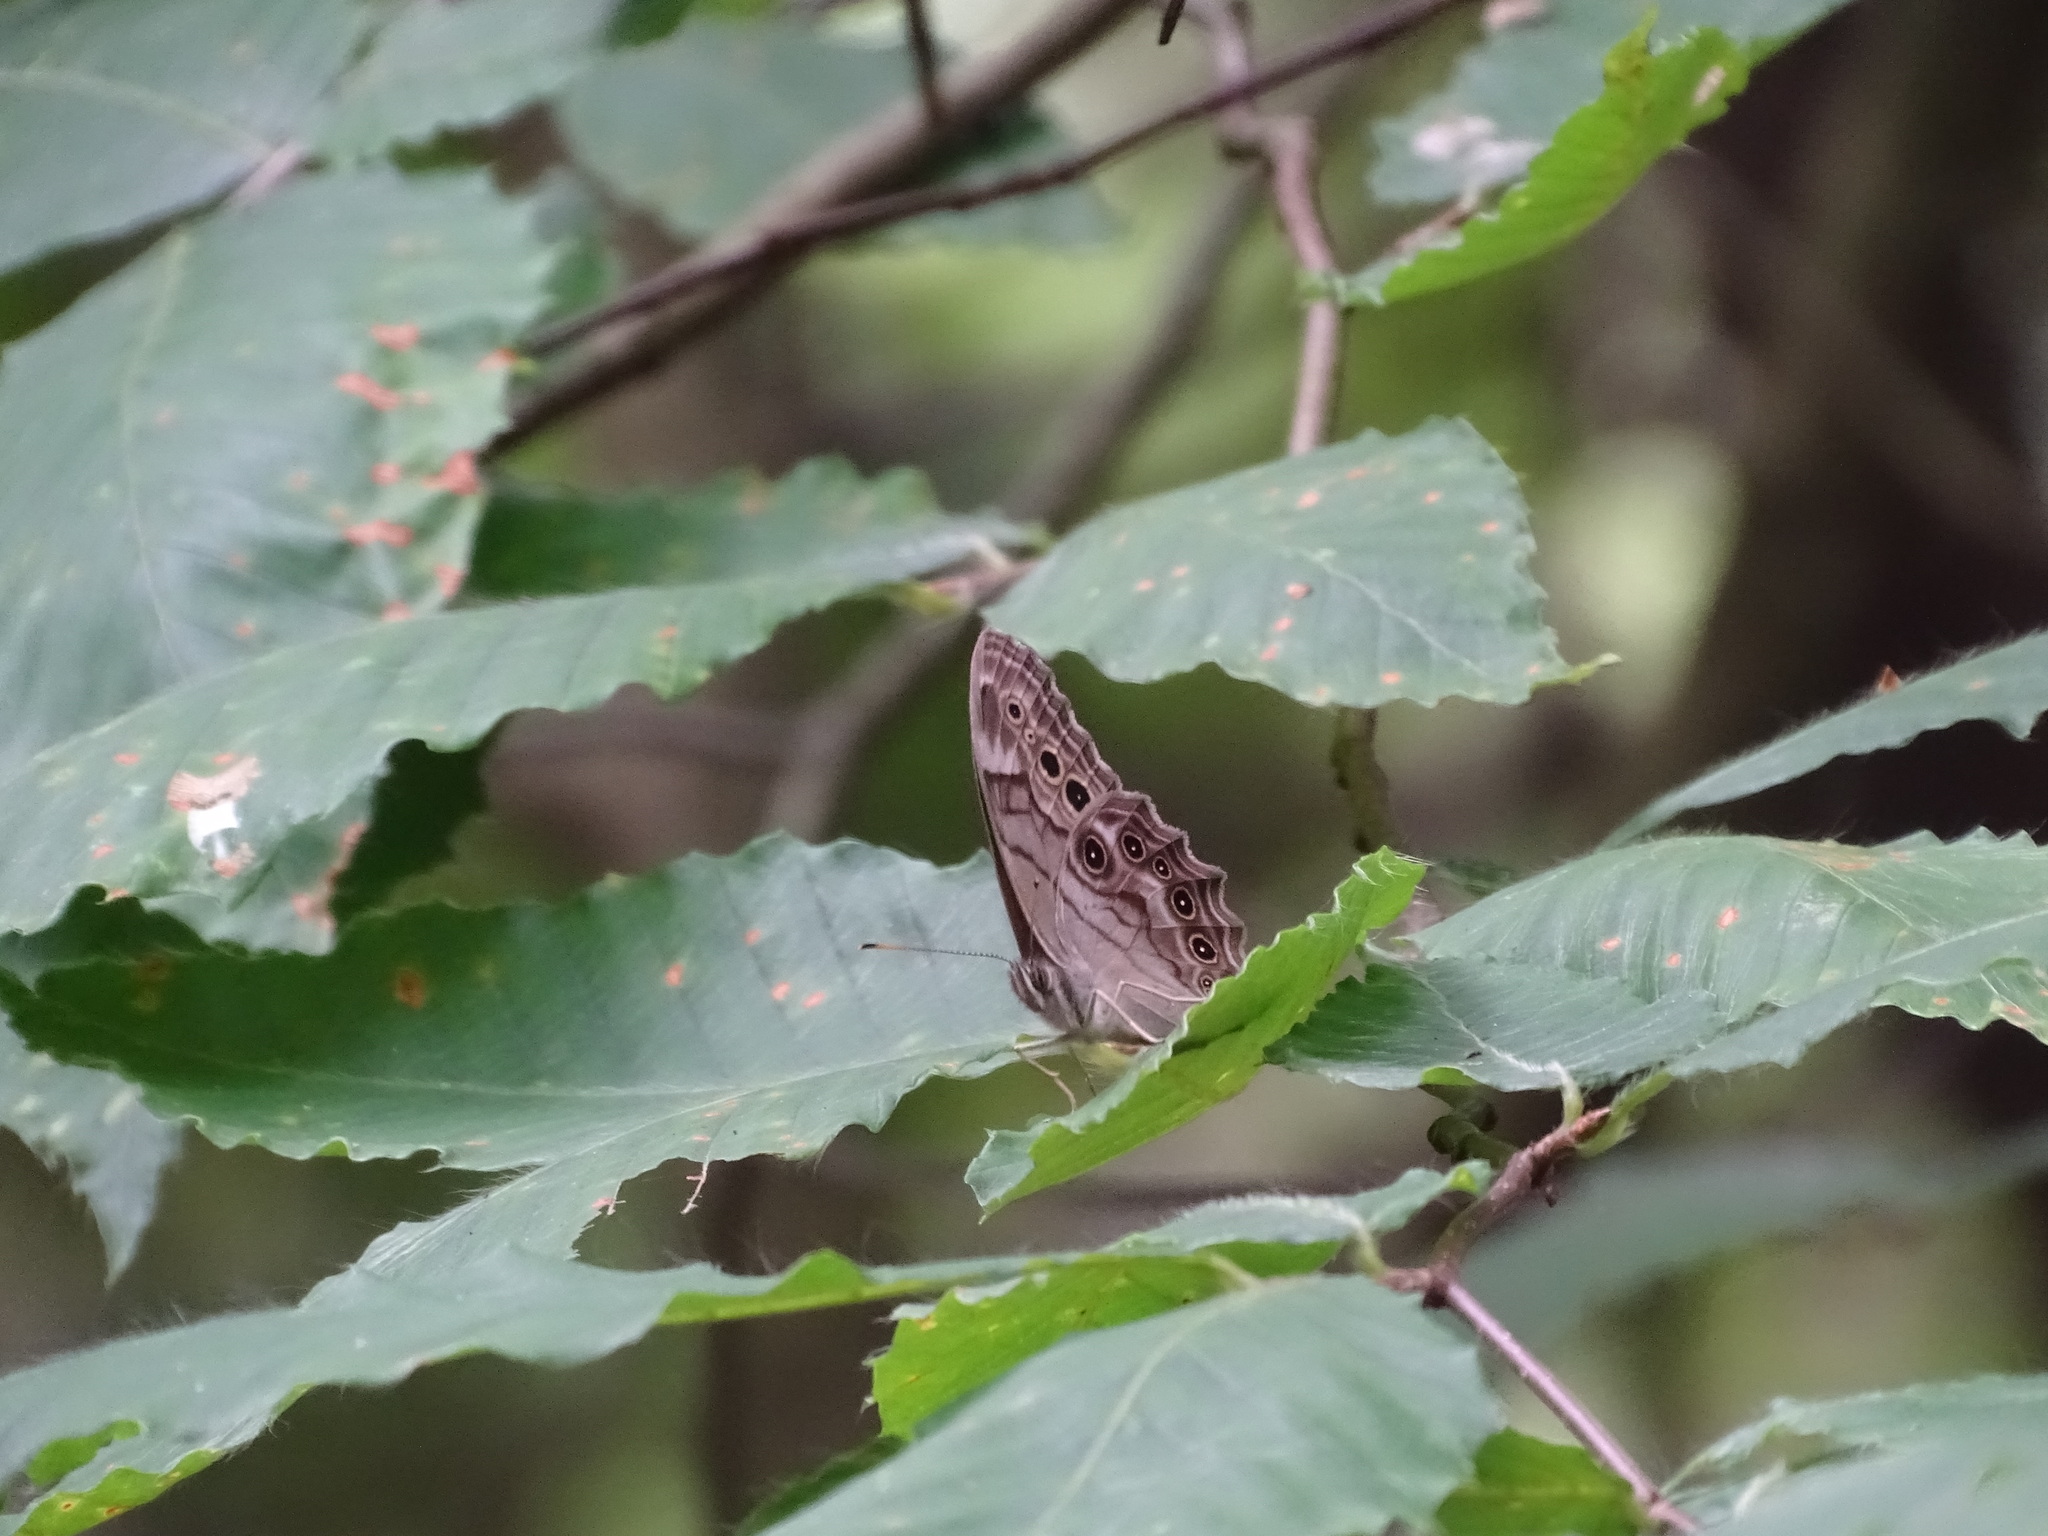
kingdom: Animalia
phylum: Arthropoda
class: Insecta
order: Lepidoptera
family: Nymphalidae
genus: Lethe
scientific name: Lethe anthedon
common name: Northern pearly-eye
